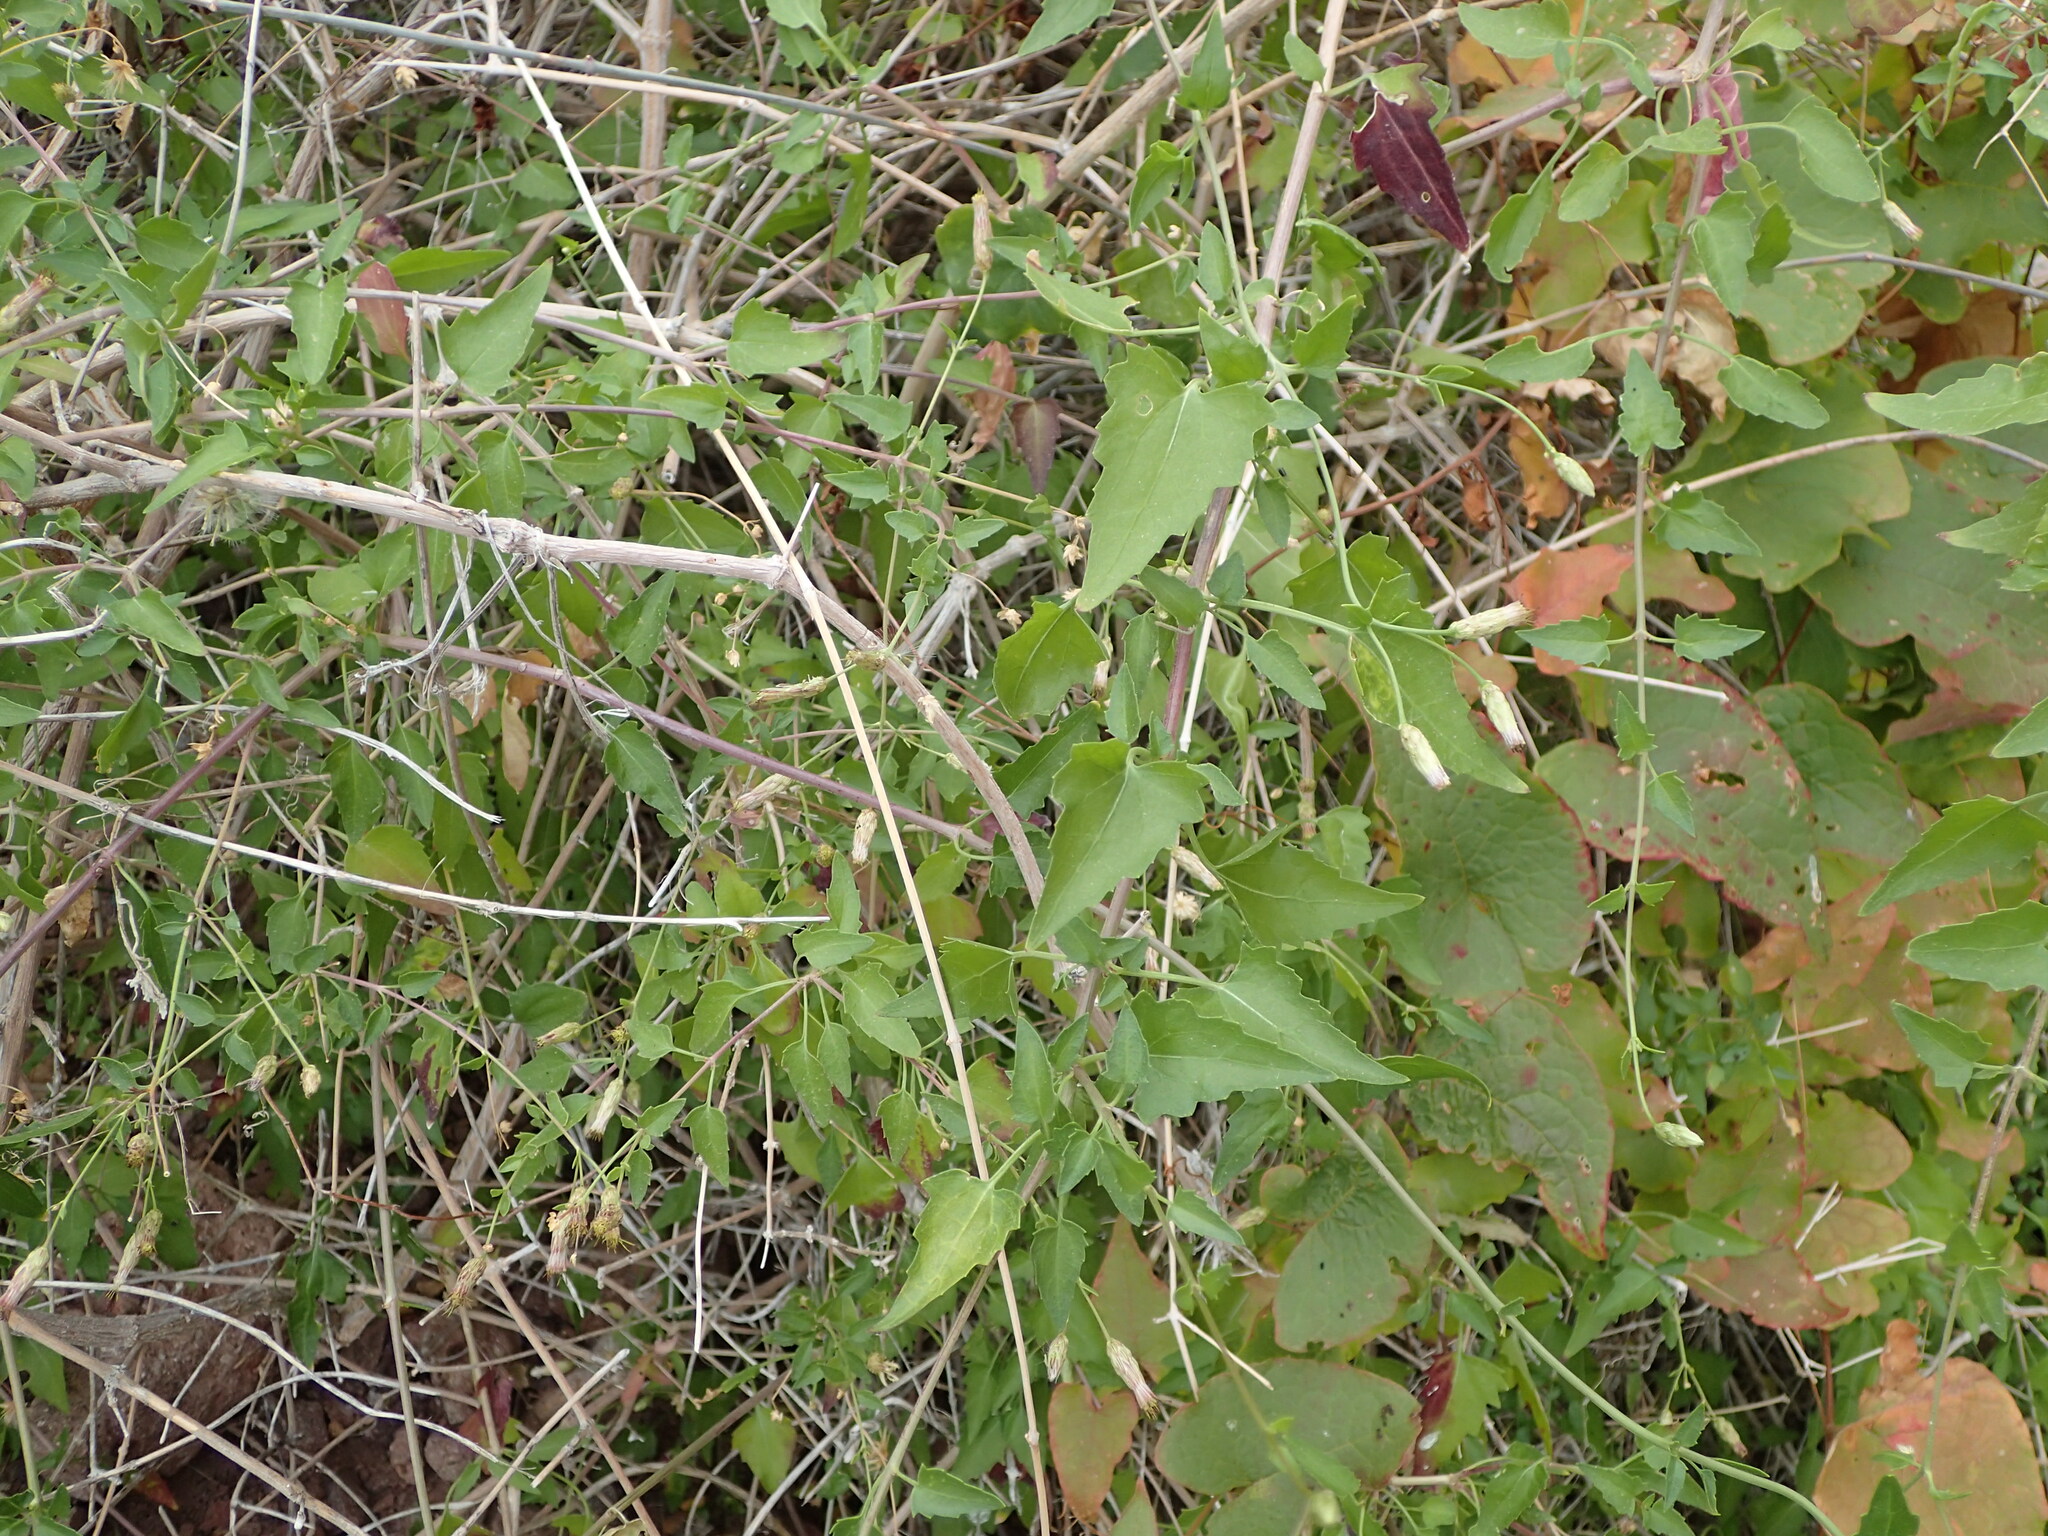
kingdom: Plantae
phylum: Tracheophyta
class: Magnoliopsida
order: Asterales
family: Asteraceae
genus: Brickellia
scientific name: Brickellia coulteri
